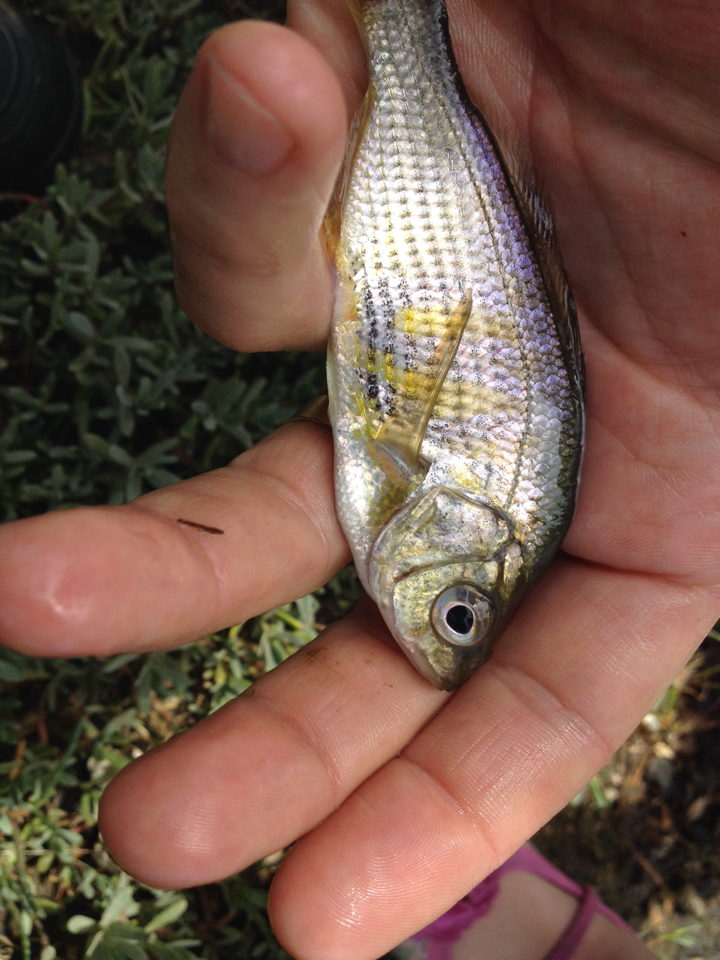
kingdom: Animalia
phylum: Chordata
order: Perciformes
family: Embiotocidae
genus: Cymatogaster
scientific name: Cymatogaster aggregata
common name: Shiner perch
